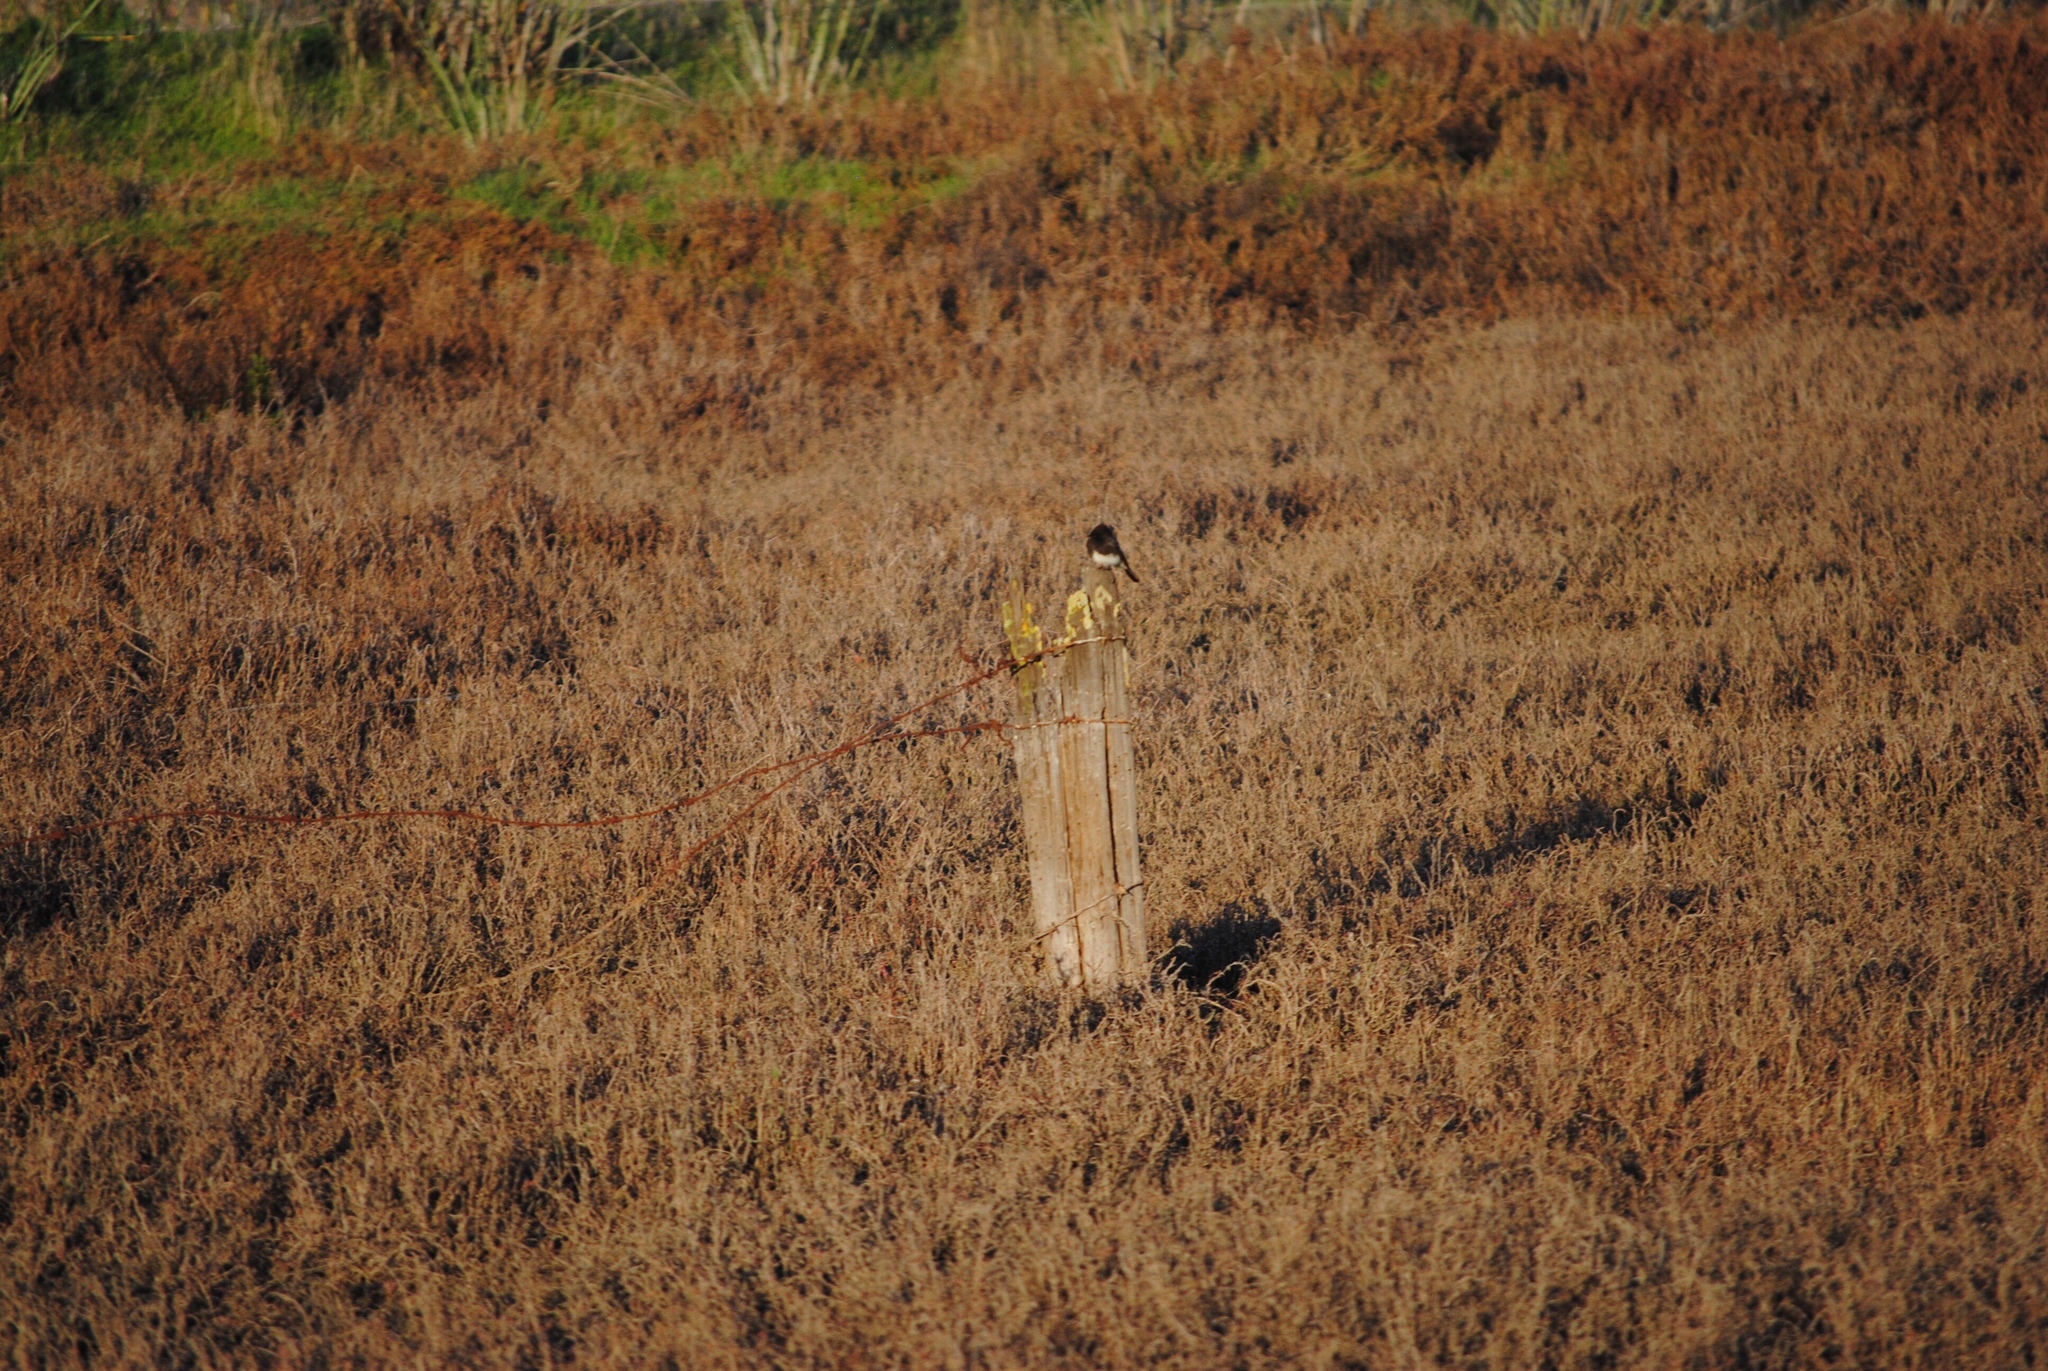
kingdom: Animalia
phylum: Chordata
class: Aves
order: Passeriformes
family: Tyrannidae
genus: Sayornis
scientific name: Sayornis nigricans
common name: Black phoebe
